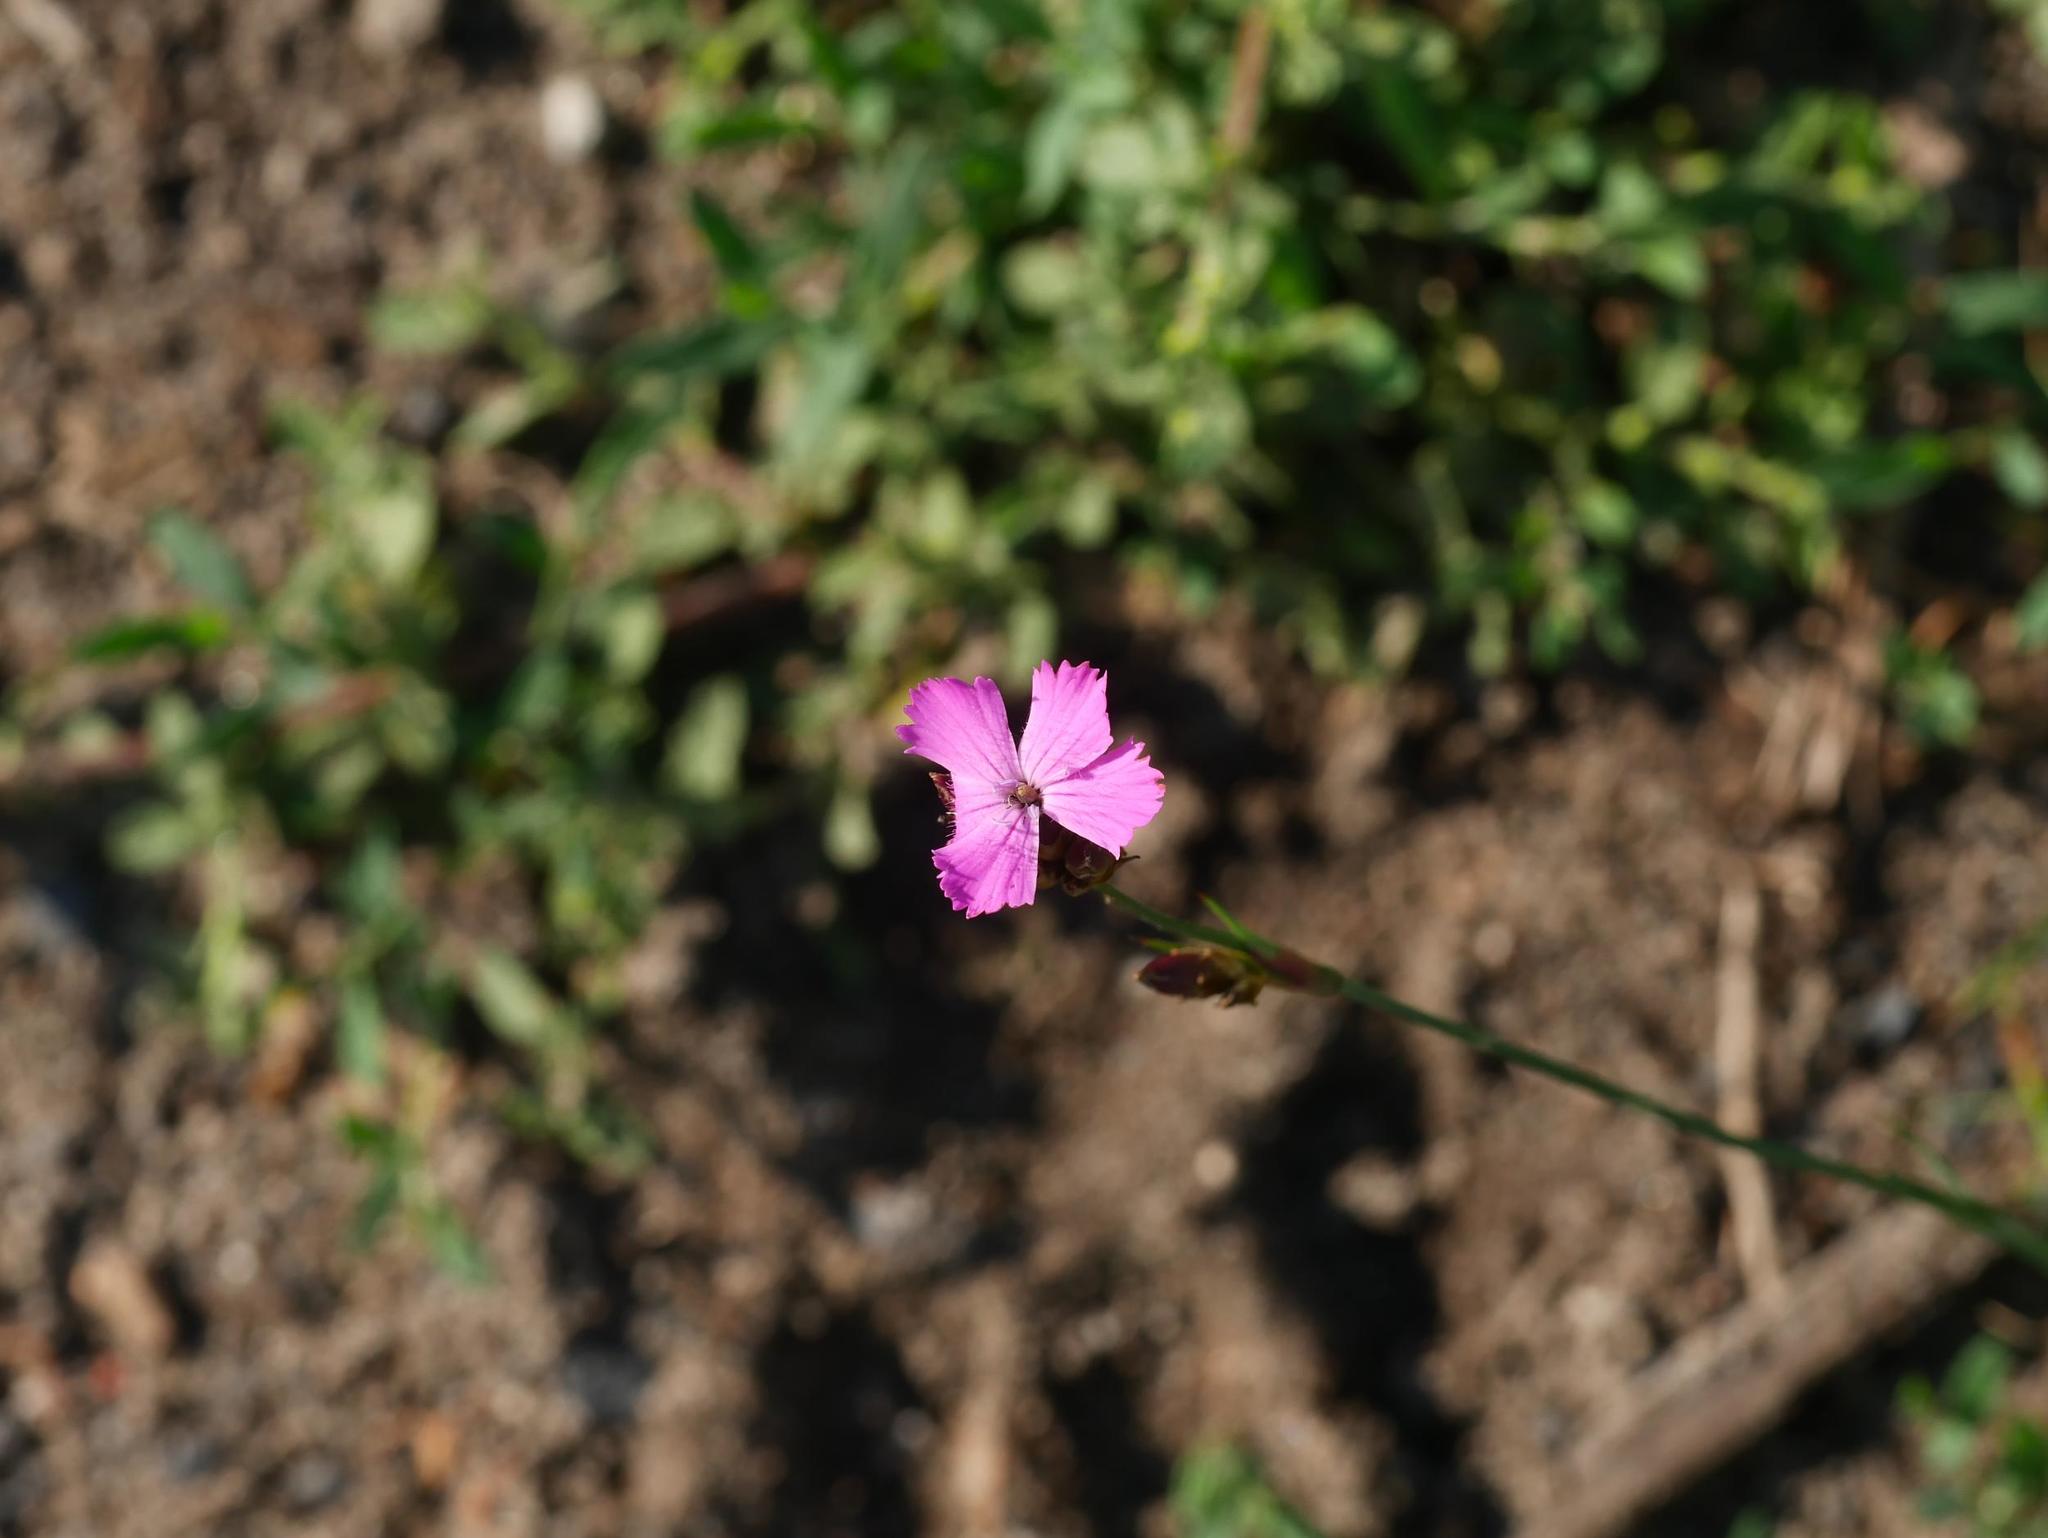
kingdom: Plantae
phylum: Tracheophyta
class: Magnoliopsida
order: Caryophyllales
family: Caryophyllaceae
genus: Dianthus
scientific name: Dianthus carthusianorum
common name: Carthusian pink
